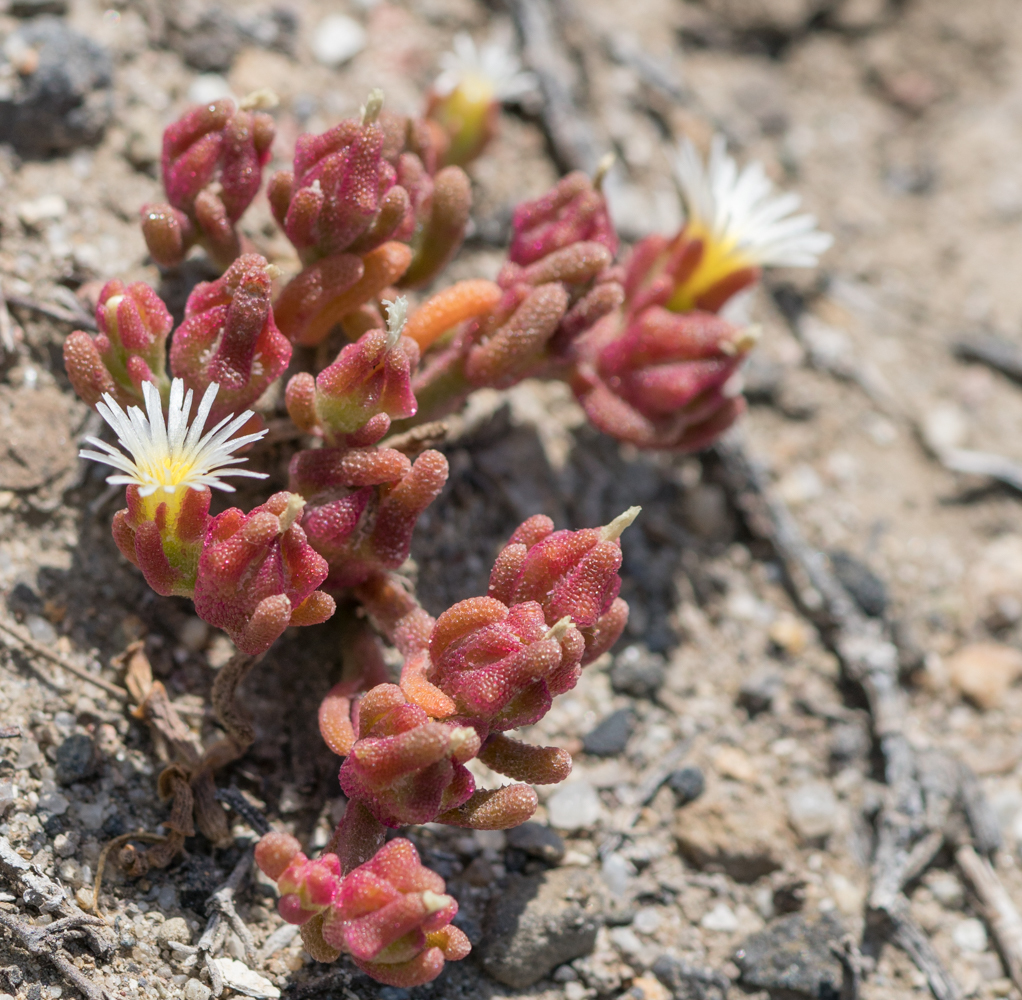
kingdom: Plantae
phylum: Tracheophyta
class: Magnoliopsida
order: Caryophyllales
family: Aizoaceae
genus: Mesembryanthemum
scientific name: Mesembryanthemum nodiflorum
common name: Slenderleaf iceplant
